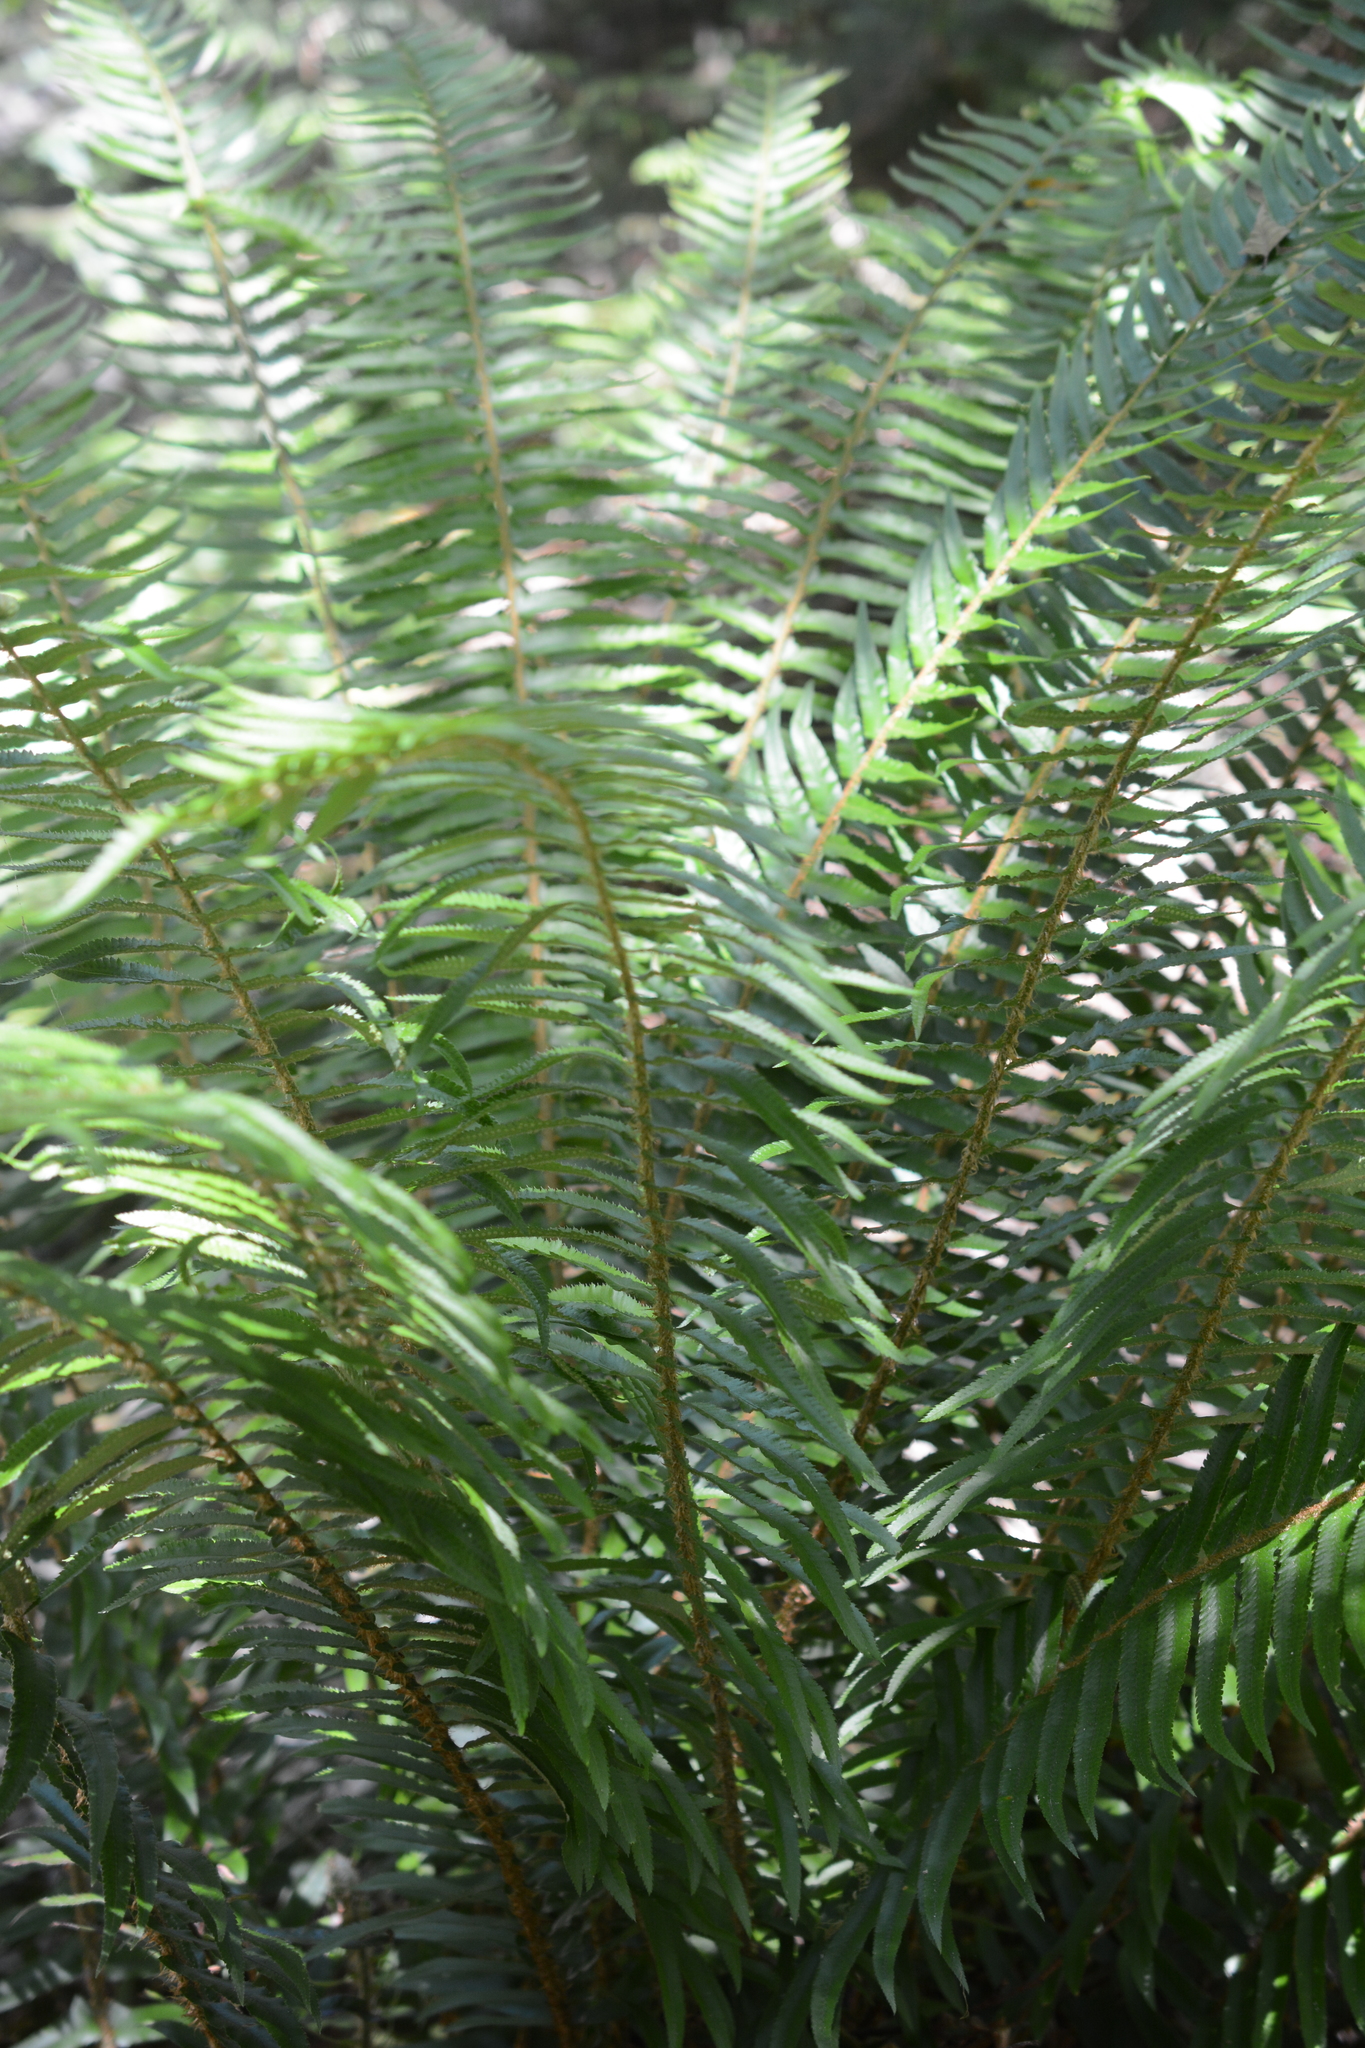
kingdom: Plantae
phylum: Tracheophyta
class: Polypodiopsida
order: Polypodiales
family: Dryopteridaceae
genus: Polystichum
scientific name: Polystichum munitum
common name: Western sword-fern
